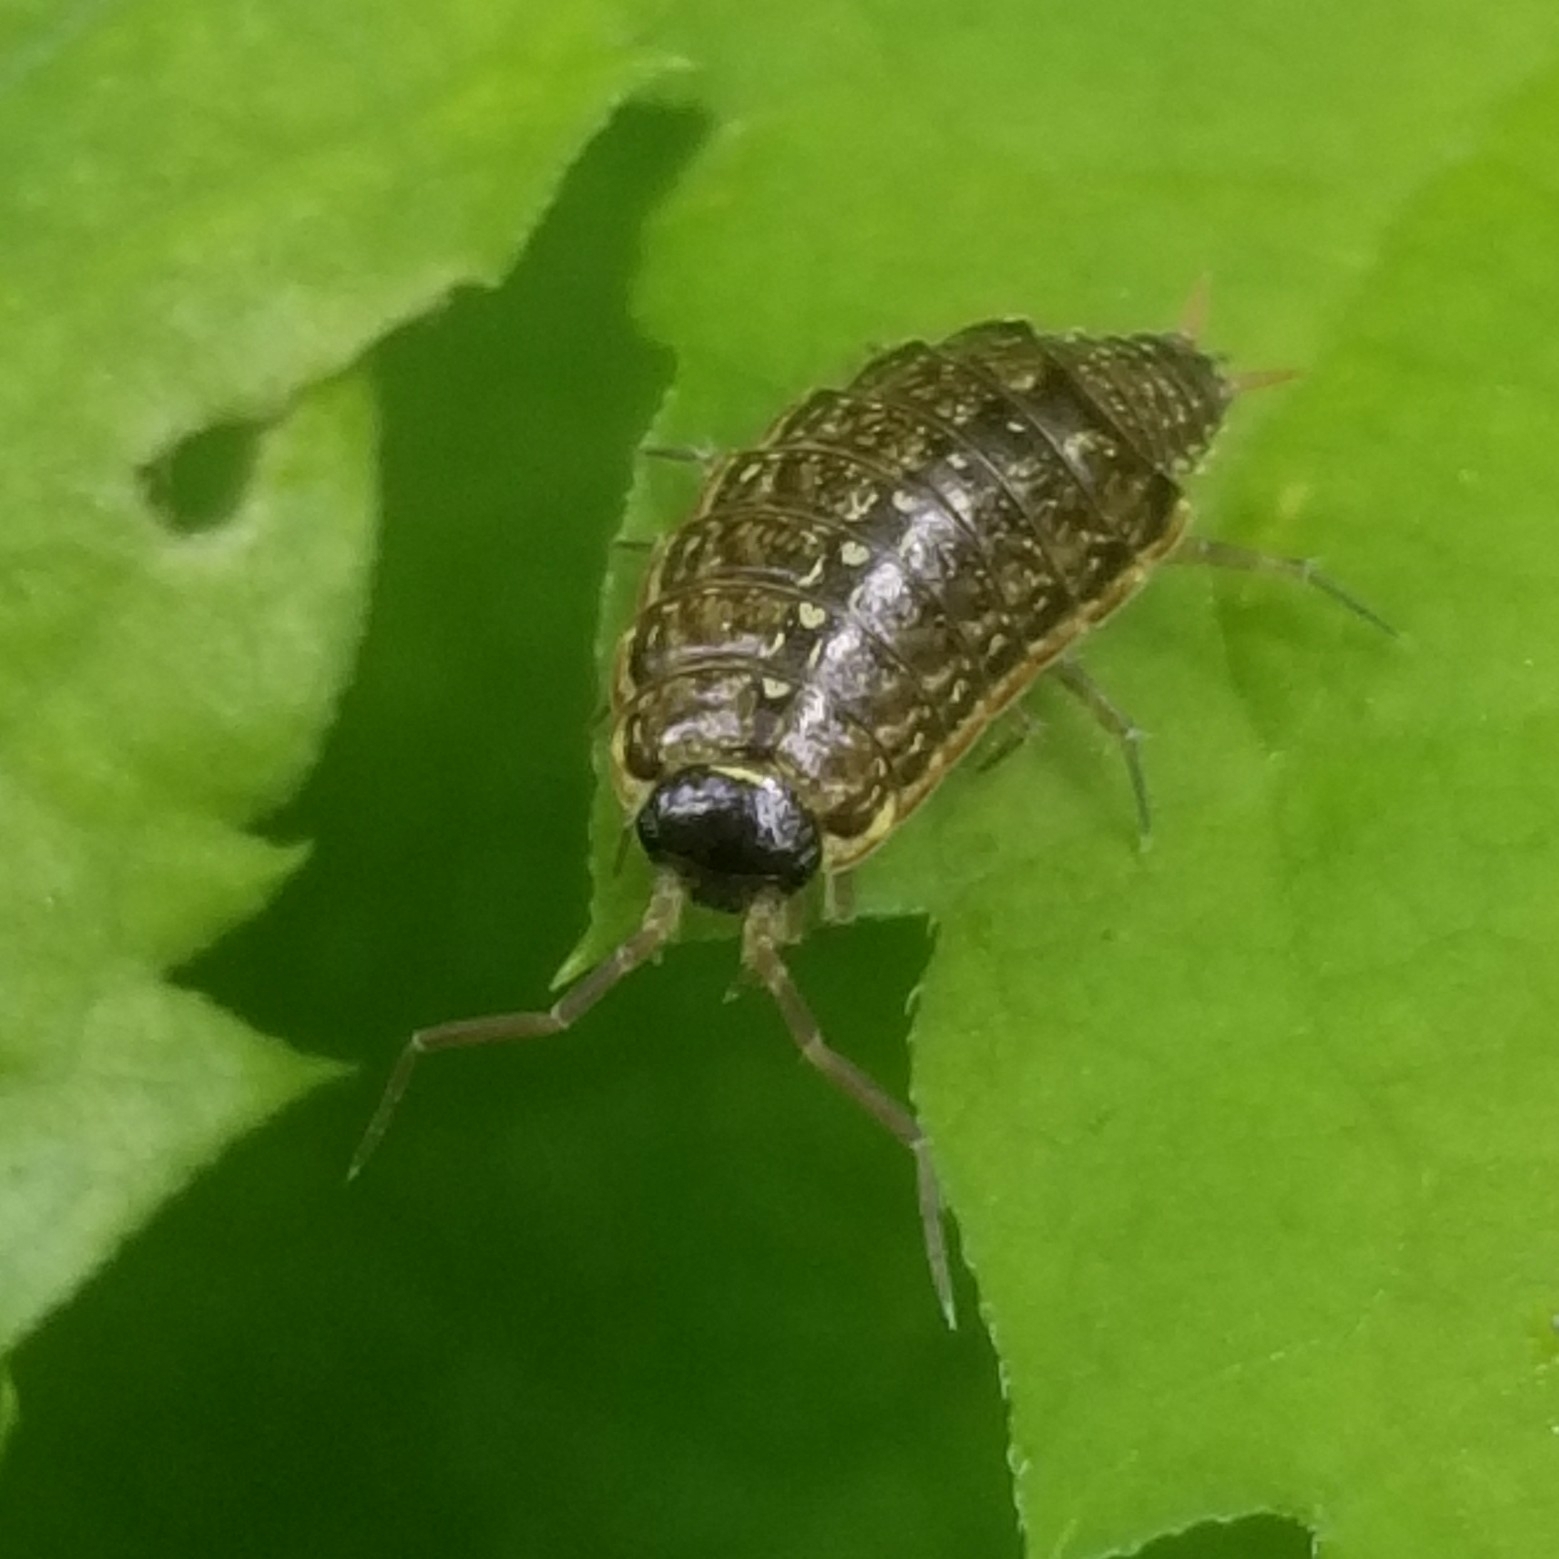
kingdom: Animalia
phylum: Arthropoda
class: Malacostraca
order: Isopoda
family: Philosciidae
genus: Philoscia
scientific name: Philoscia muscorum
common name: Common striped woodlouse
